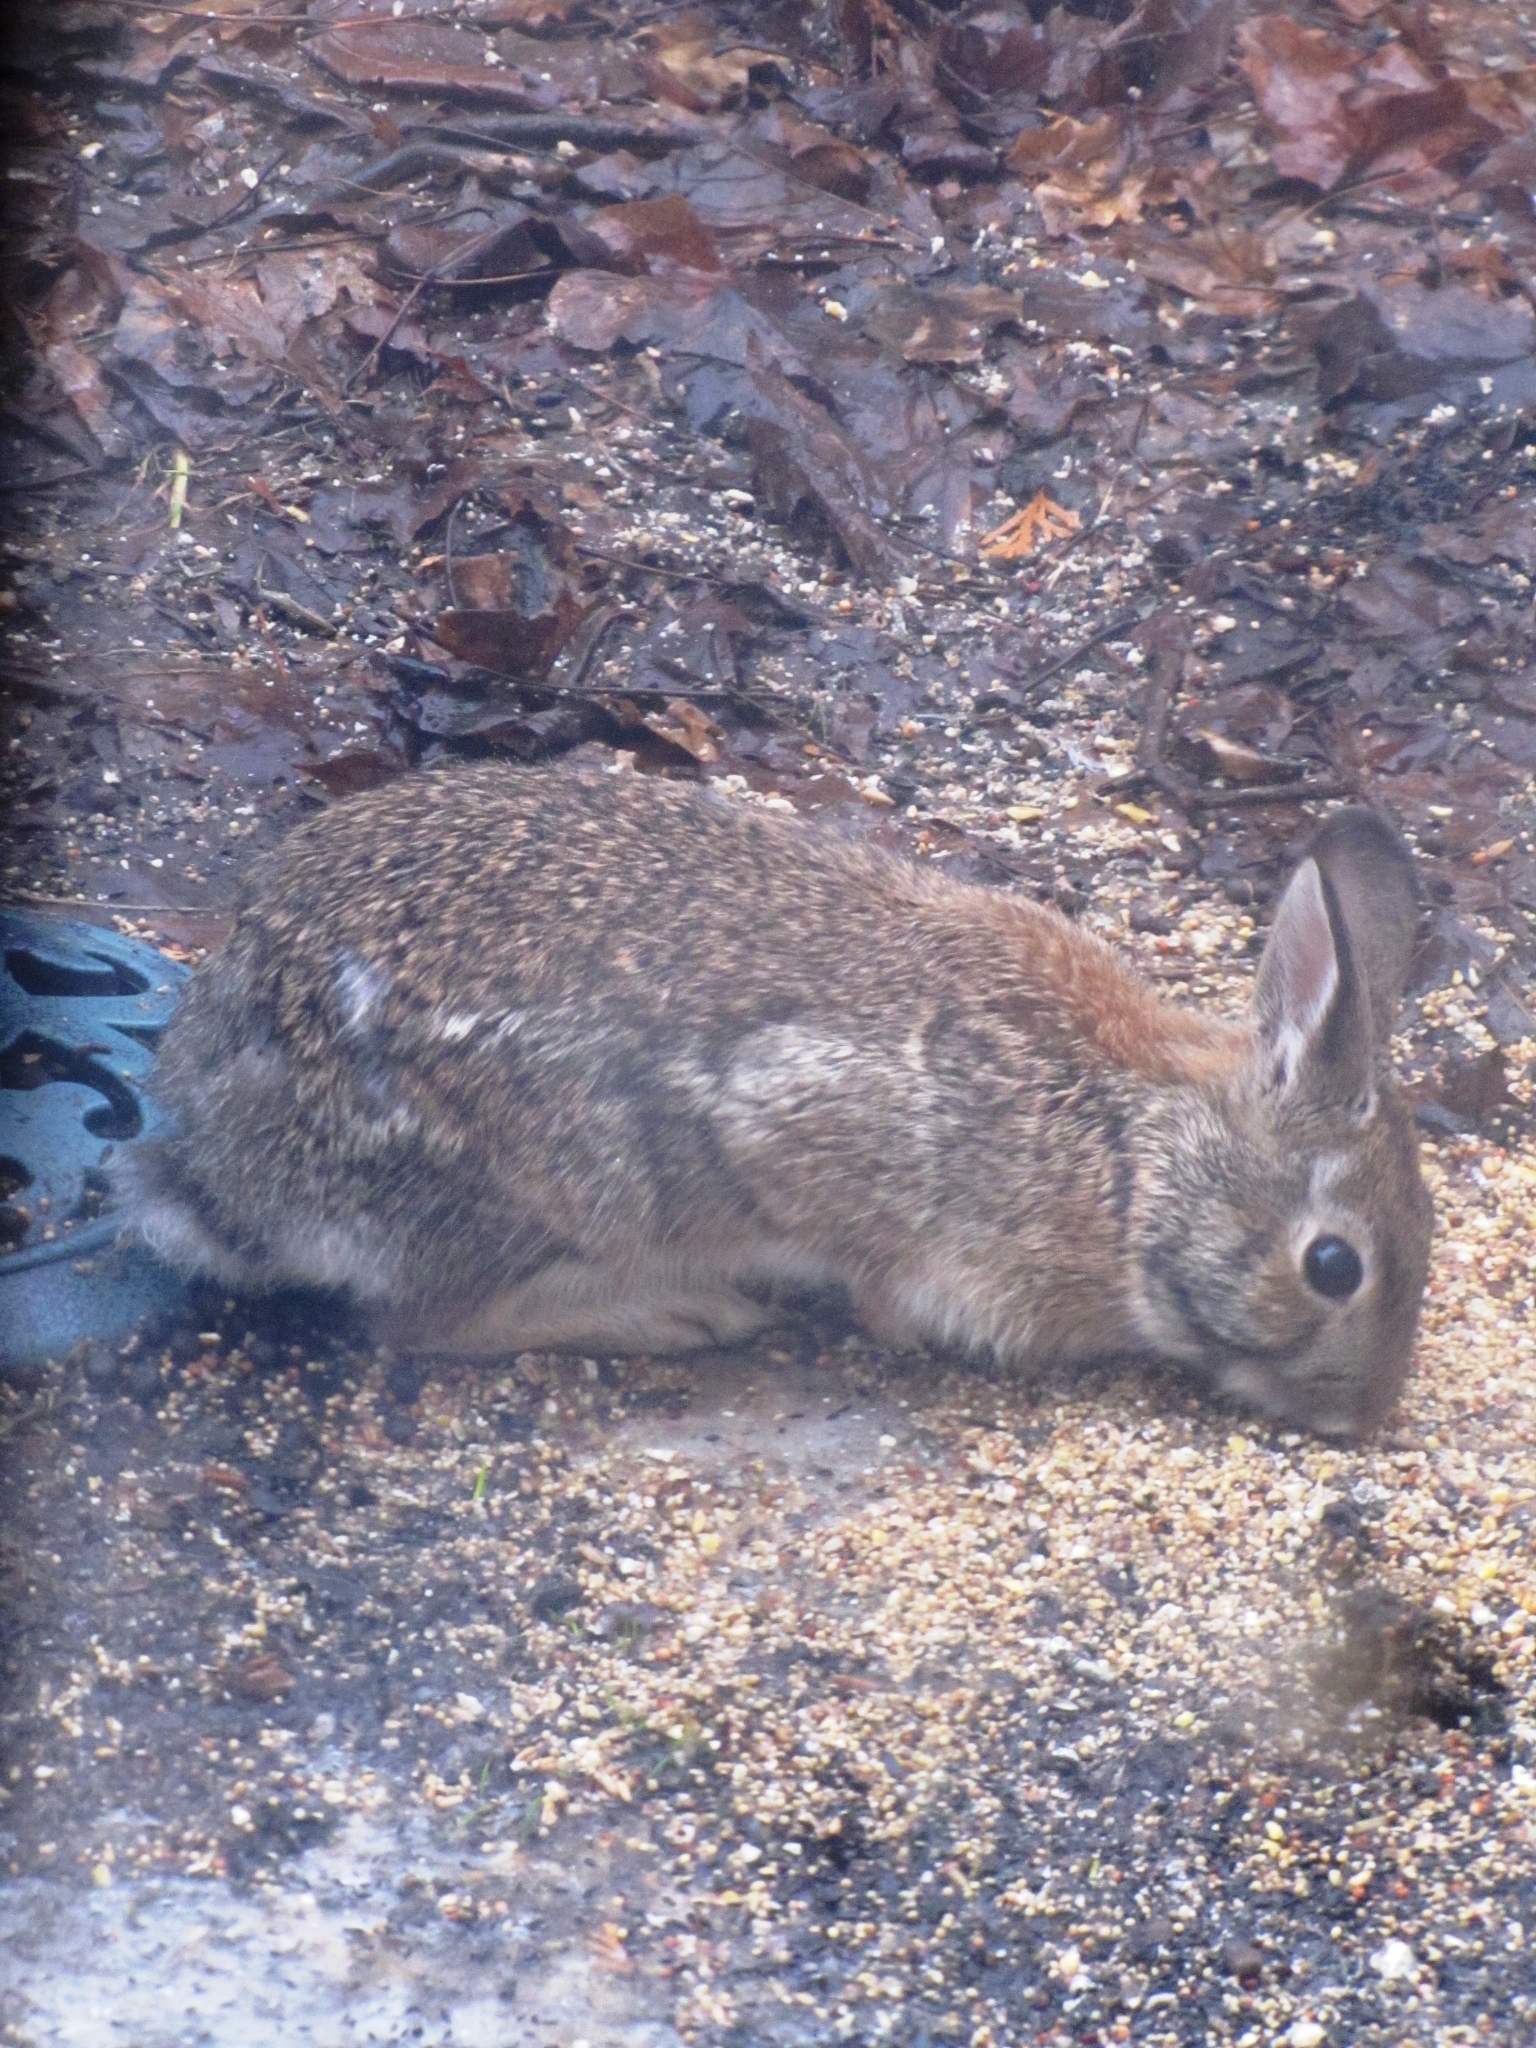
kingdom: Animalia
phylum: Chordata
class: Mammalia
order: Lagomorpha
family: Leporidae
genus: Sylvilagus
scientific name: Sylvilagus floridanus
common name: Eastern cottontail
